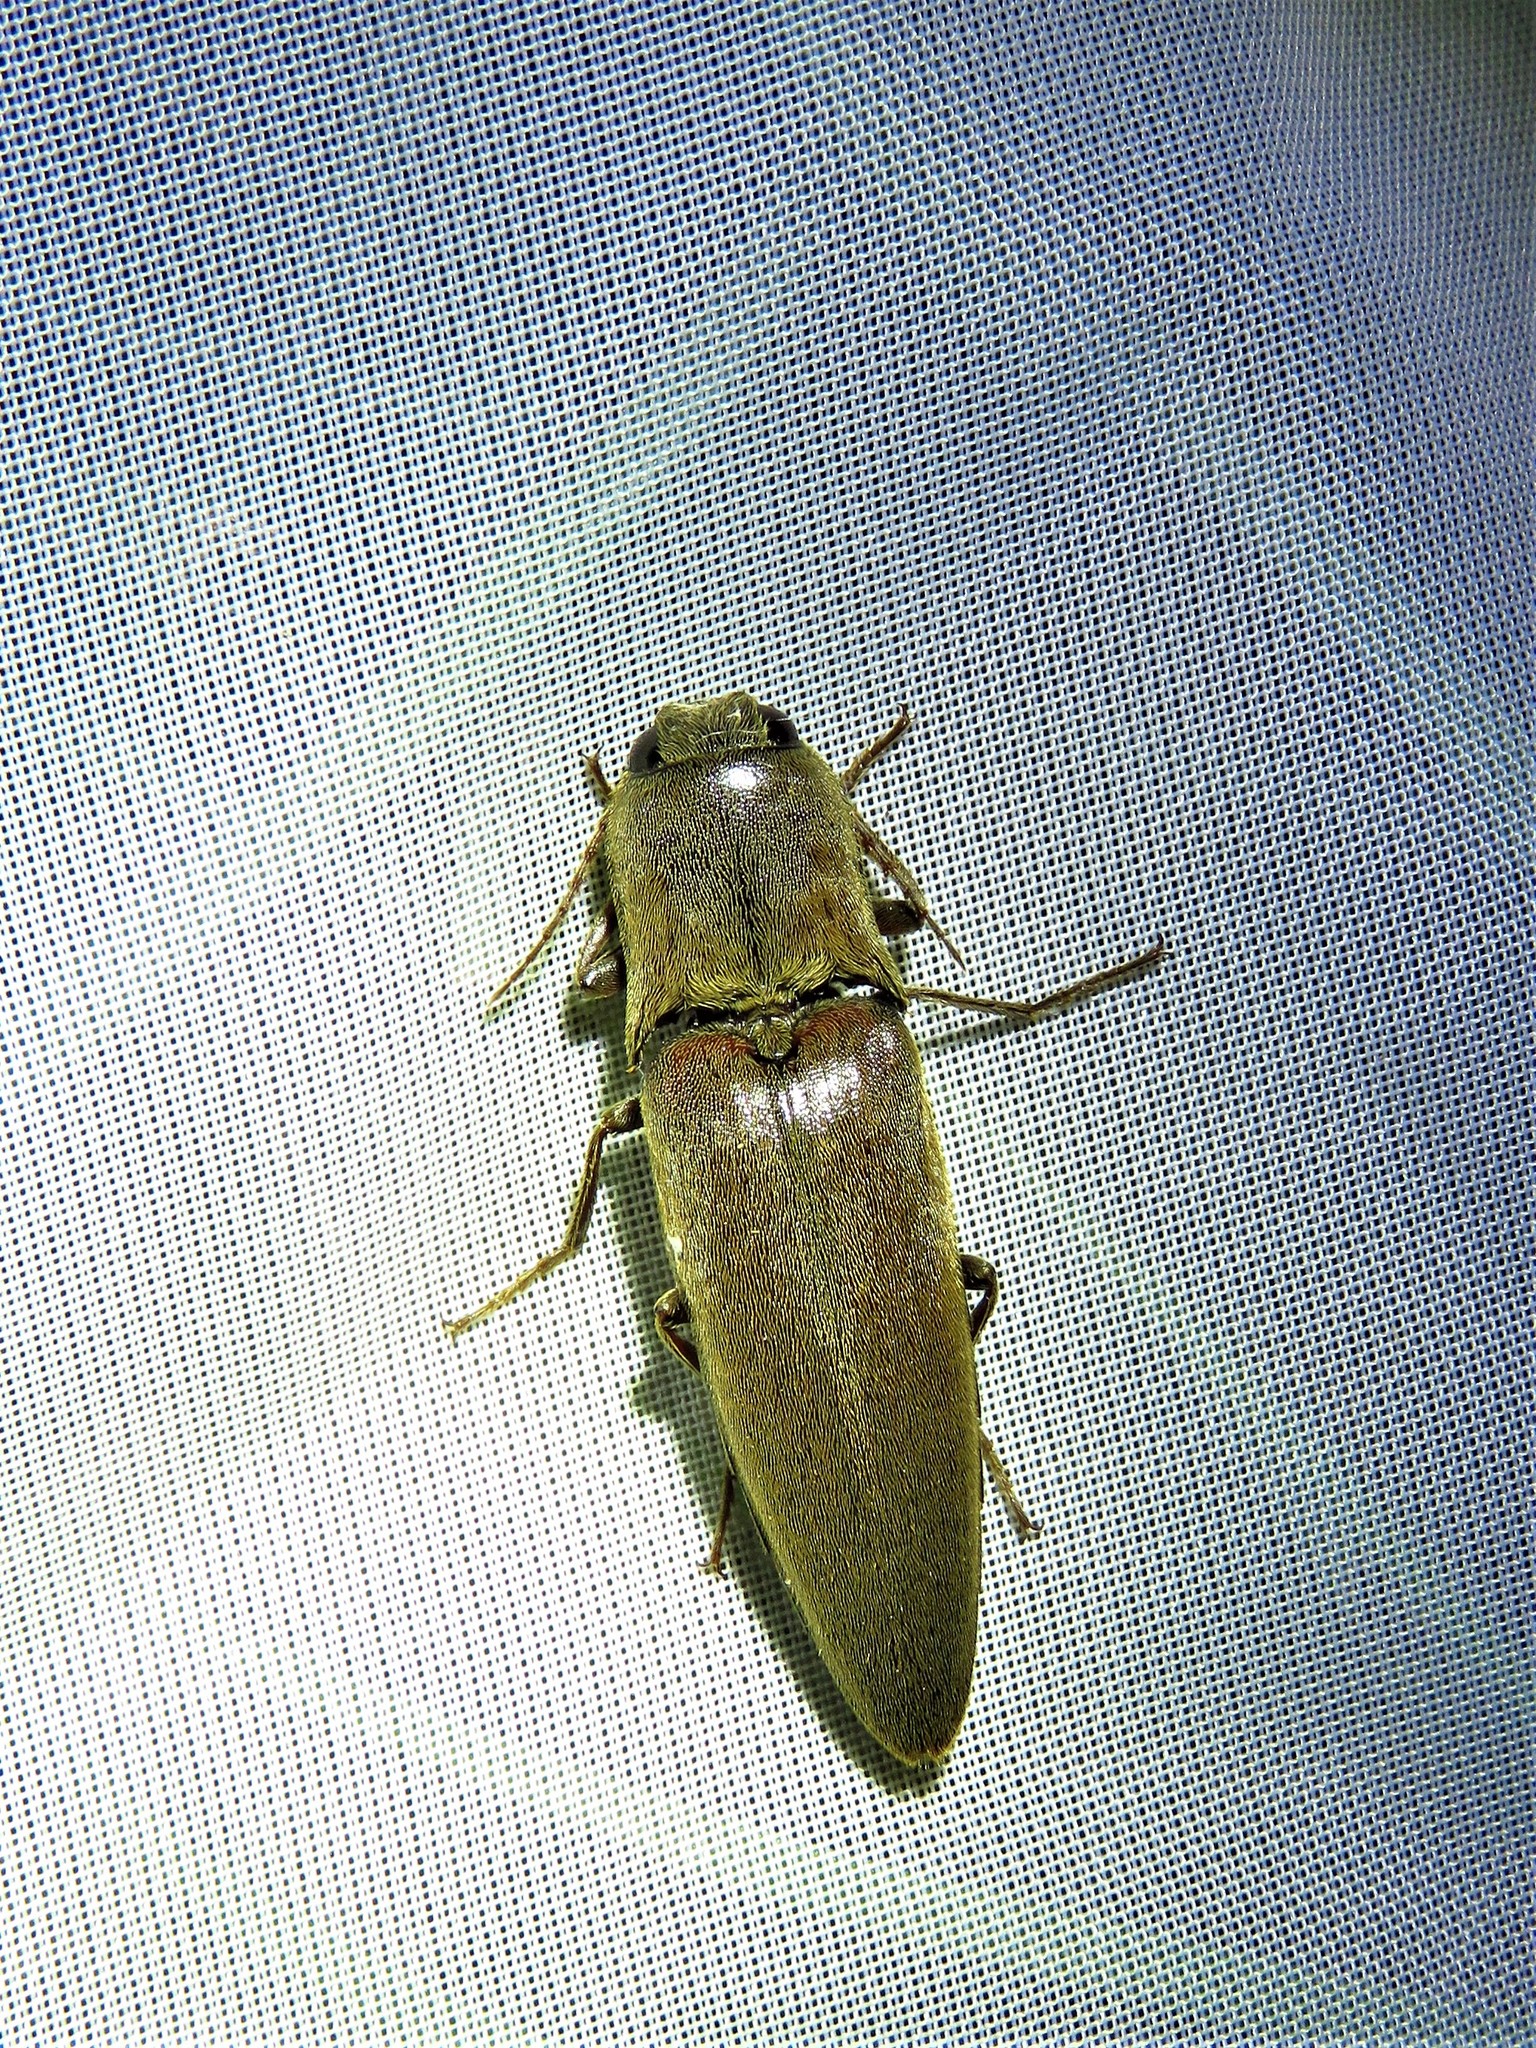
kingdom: Animalia
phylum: Arthropoda
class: Insecta
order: Coleoptera
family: Elateridae
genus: Orthostethus
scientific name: Orthostethus infuscatus
